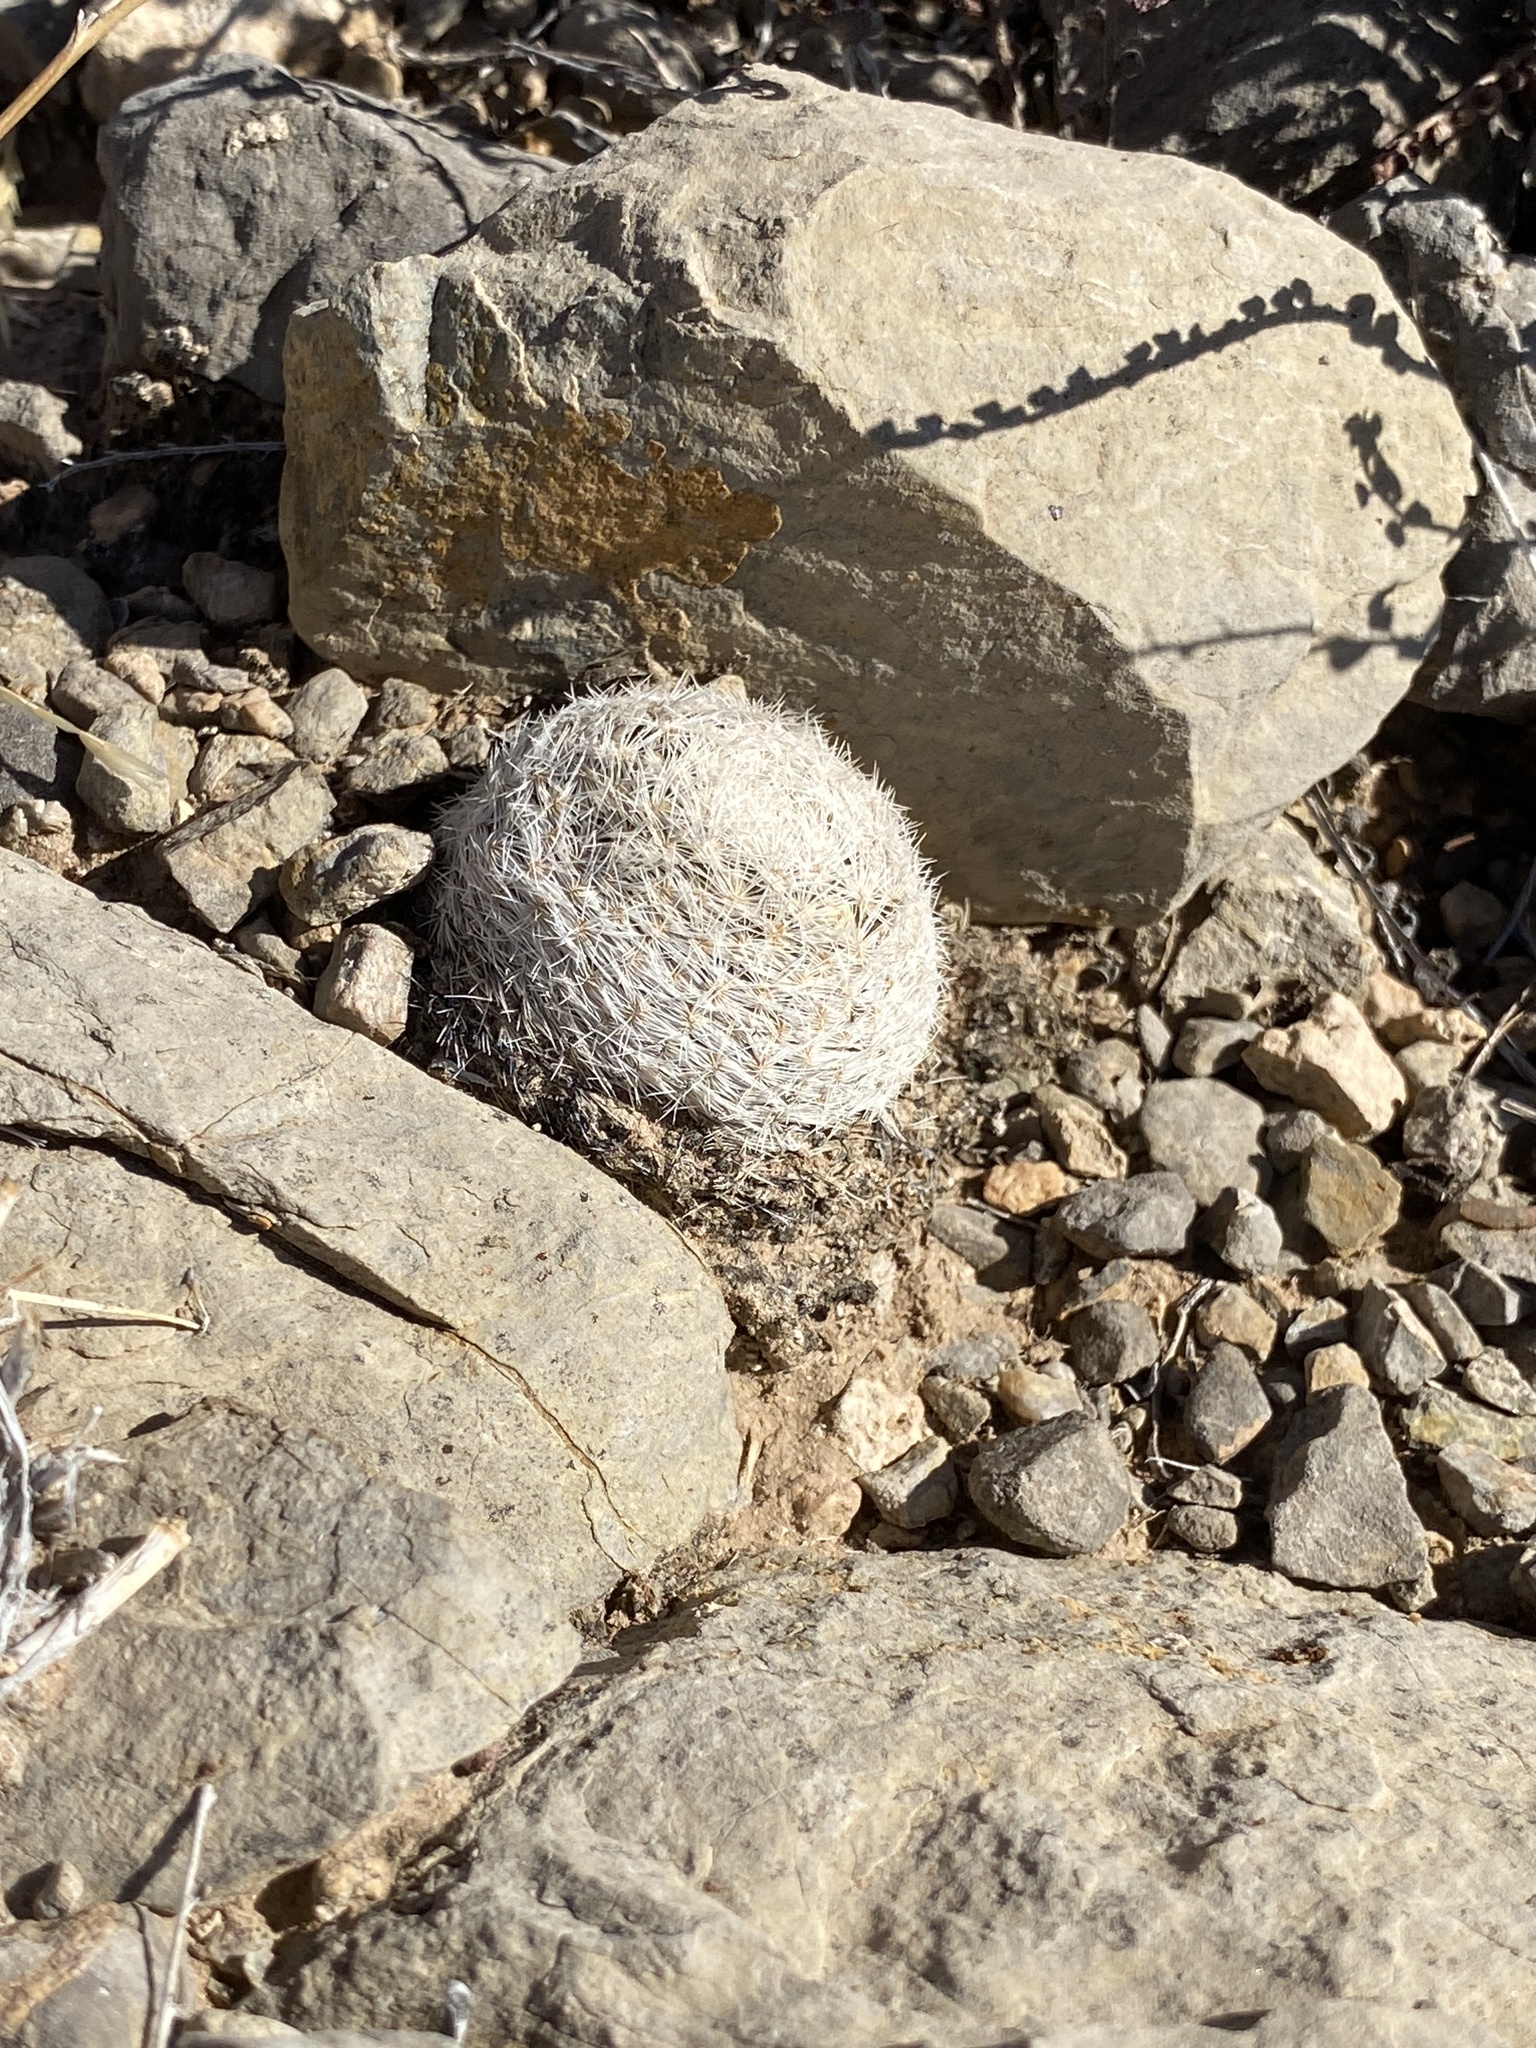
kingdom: Plantae
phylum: Tracheophyta
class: Magnoliopsida
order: Caryophyllales
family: Cactaceae
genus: Mammillaria
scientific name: Mammillaria lasiacantha
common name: Lace-spine nipple cactus
